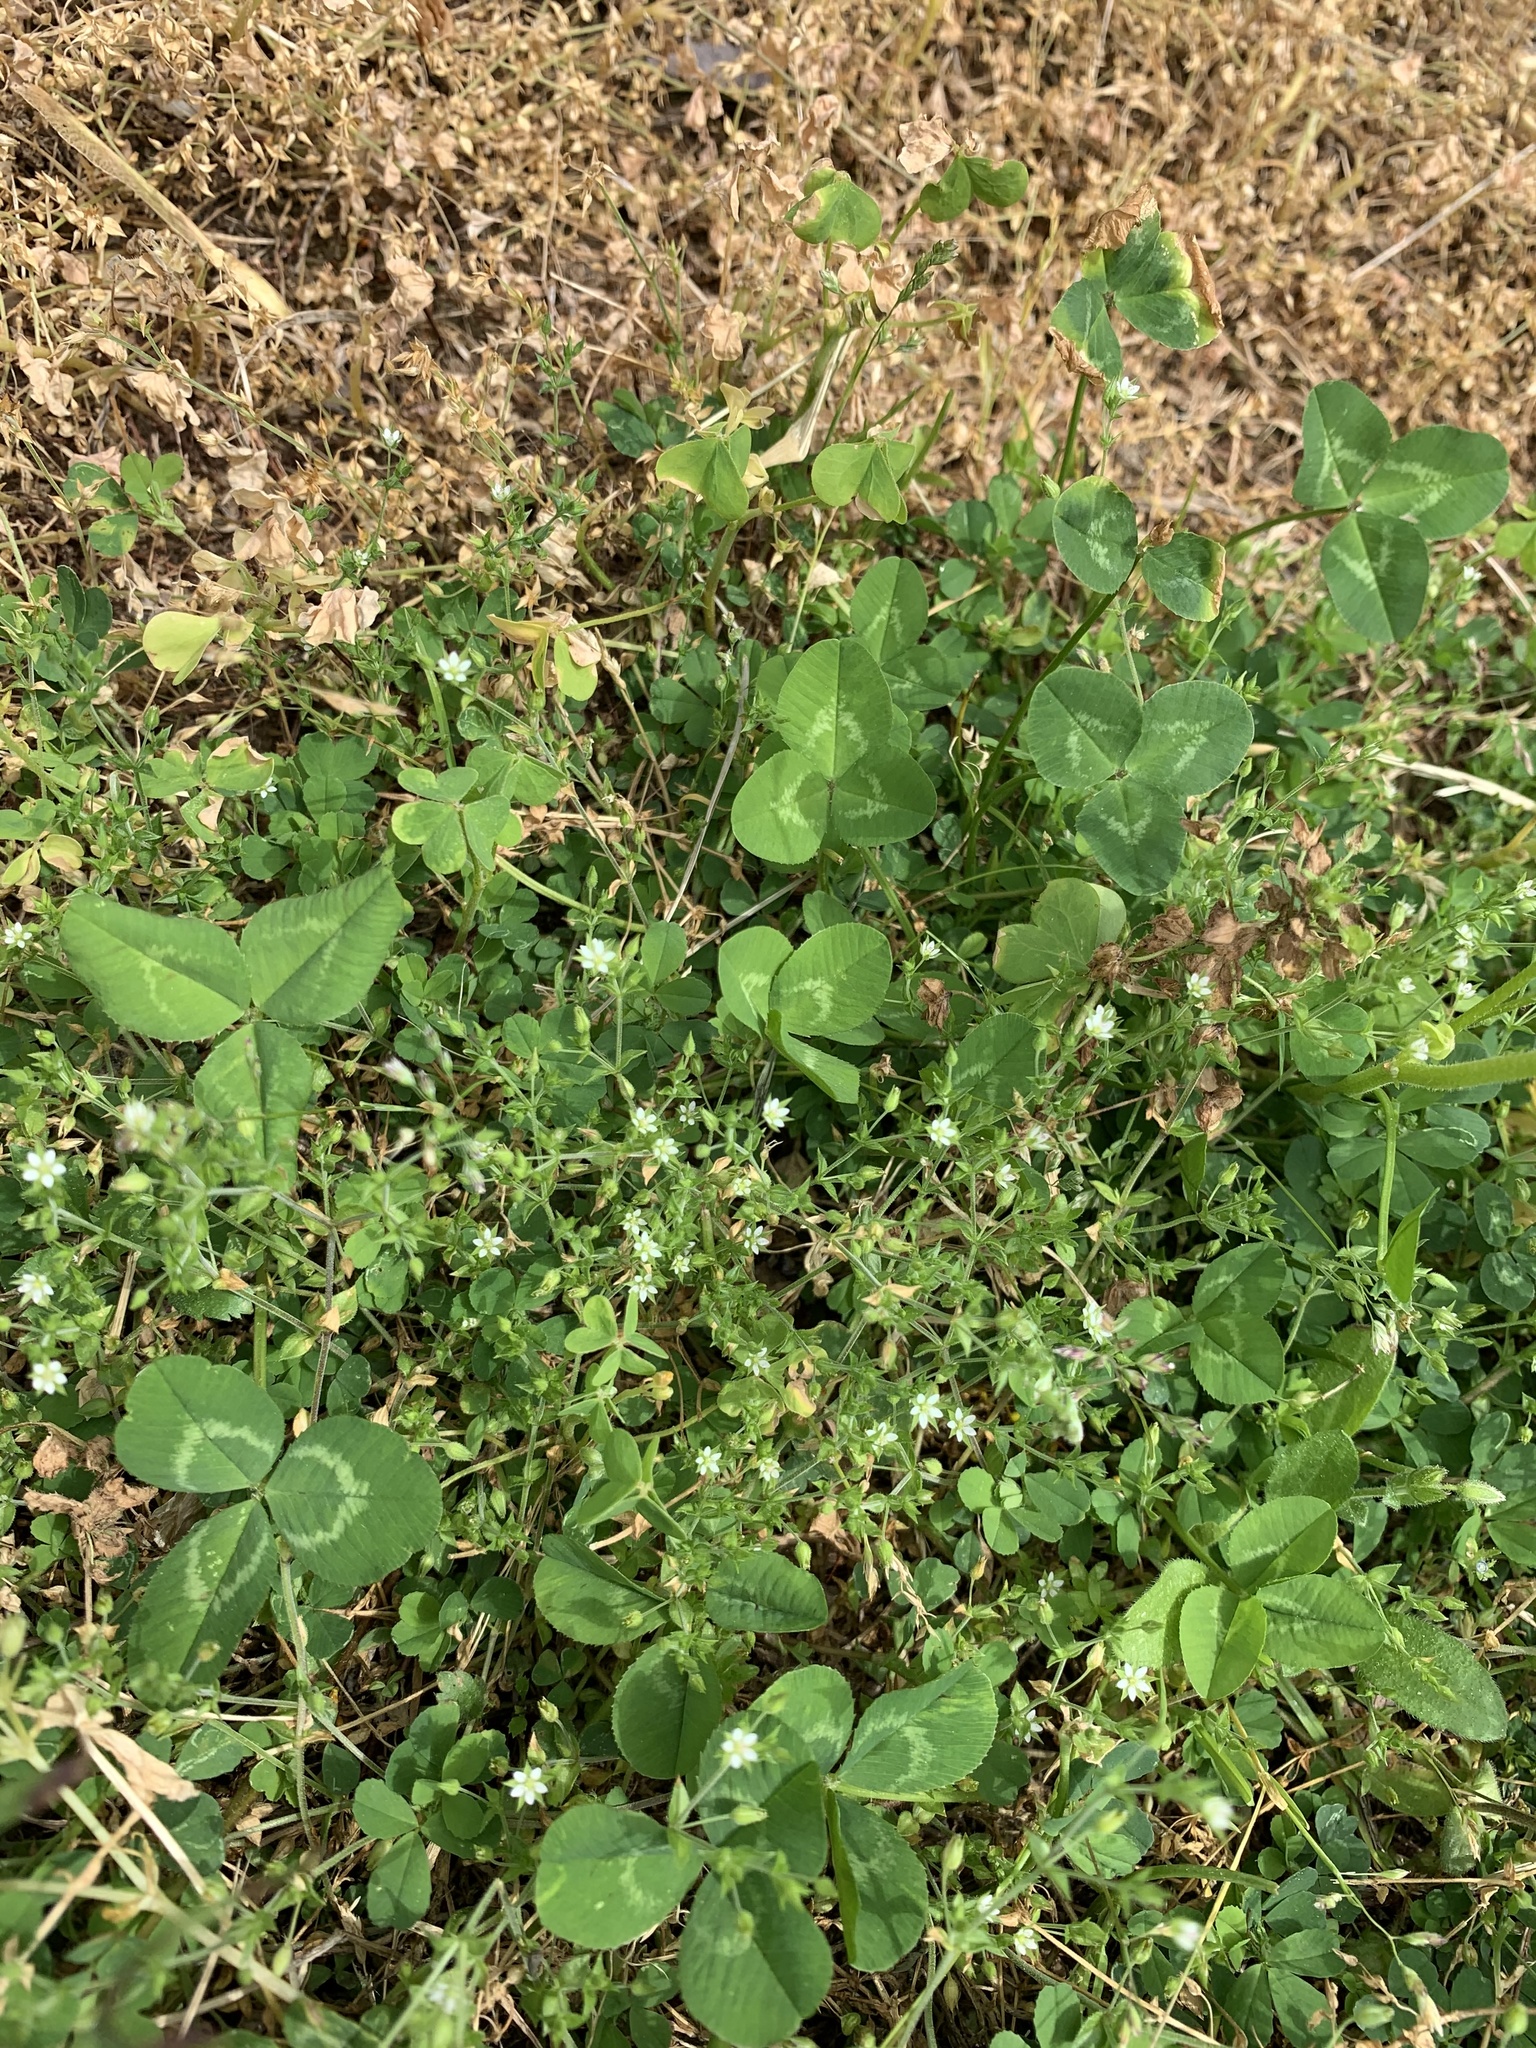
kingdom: Plantae
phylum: Tracheophyta
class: Magnoliopsida
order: Caryophyllales
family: Caryophyllaceae
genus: Arenaria
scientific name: Arenaria serpyllifolia
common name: Thyme-leaved sandwort
